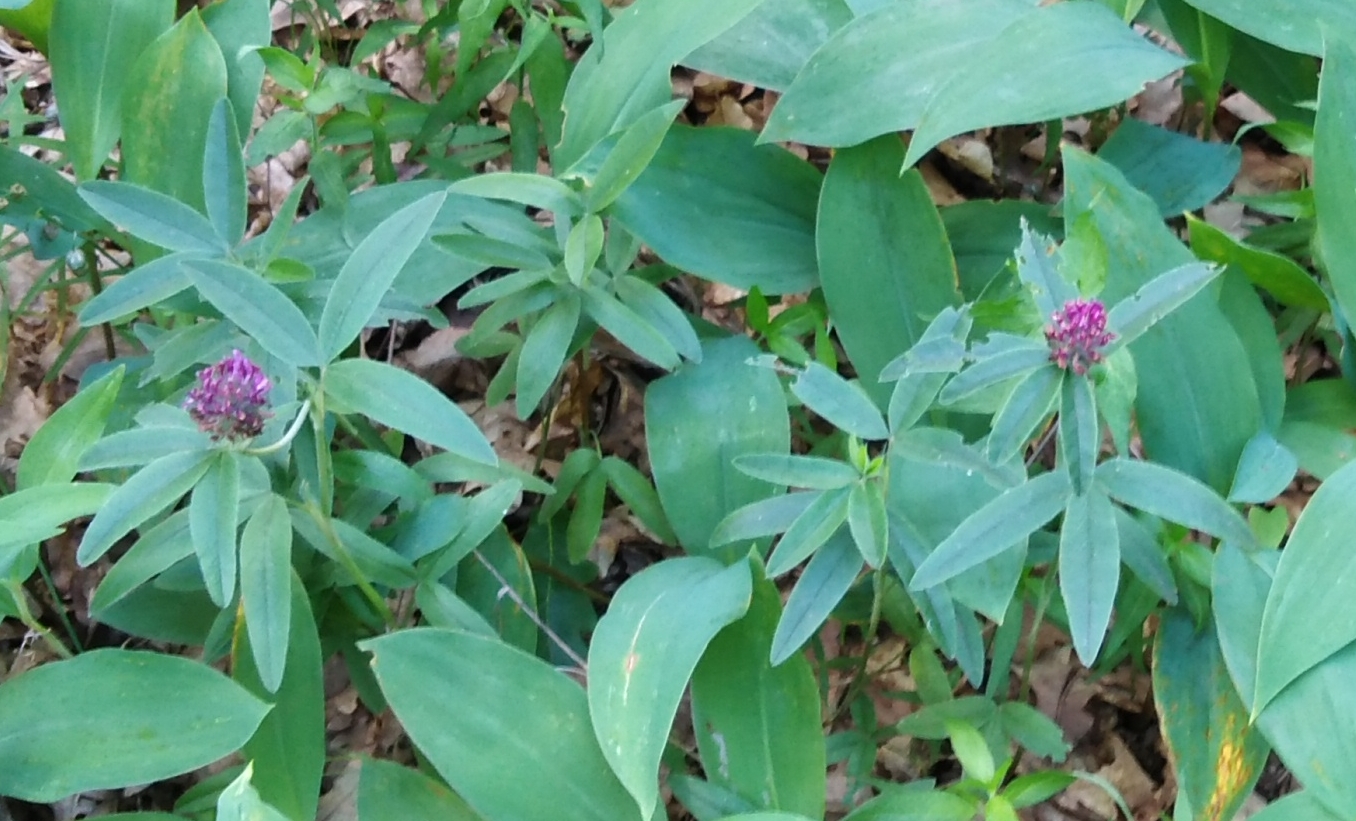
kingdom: Plantae
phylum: Tracheophyta
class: Magnoliopsida
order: Fabales
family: Fabaceae
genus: Trifolium
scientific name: Trifolium alpestre
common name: Owl-head clover
